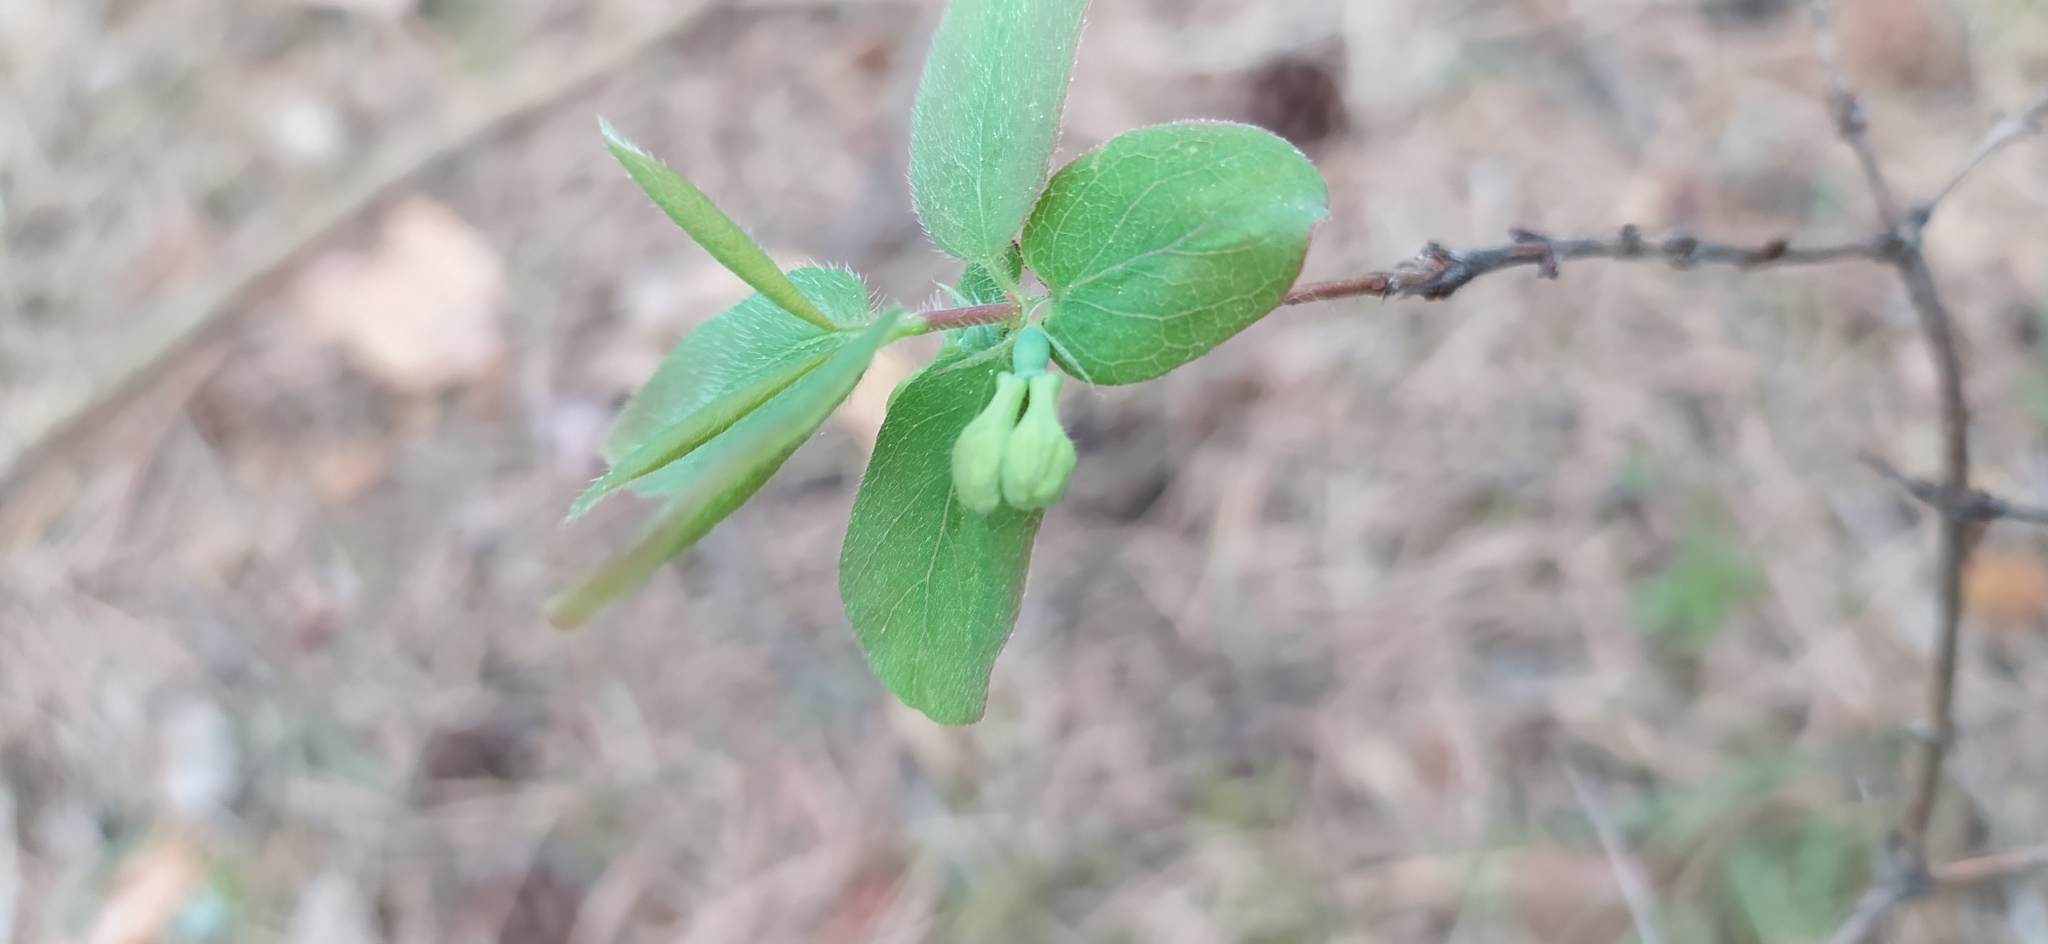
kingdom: Plantae
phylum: Tracheophyta
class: Magnoliopsida
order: Dipsacales
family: Caprifoliaceae
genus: Lonicera
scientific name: Lonicera caerulea
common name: Blue honeysuckle
